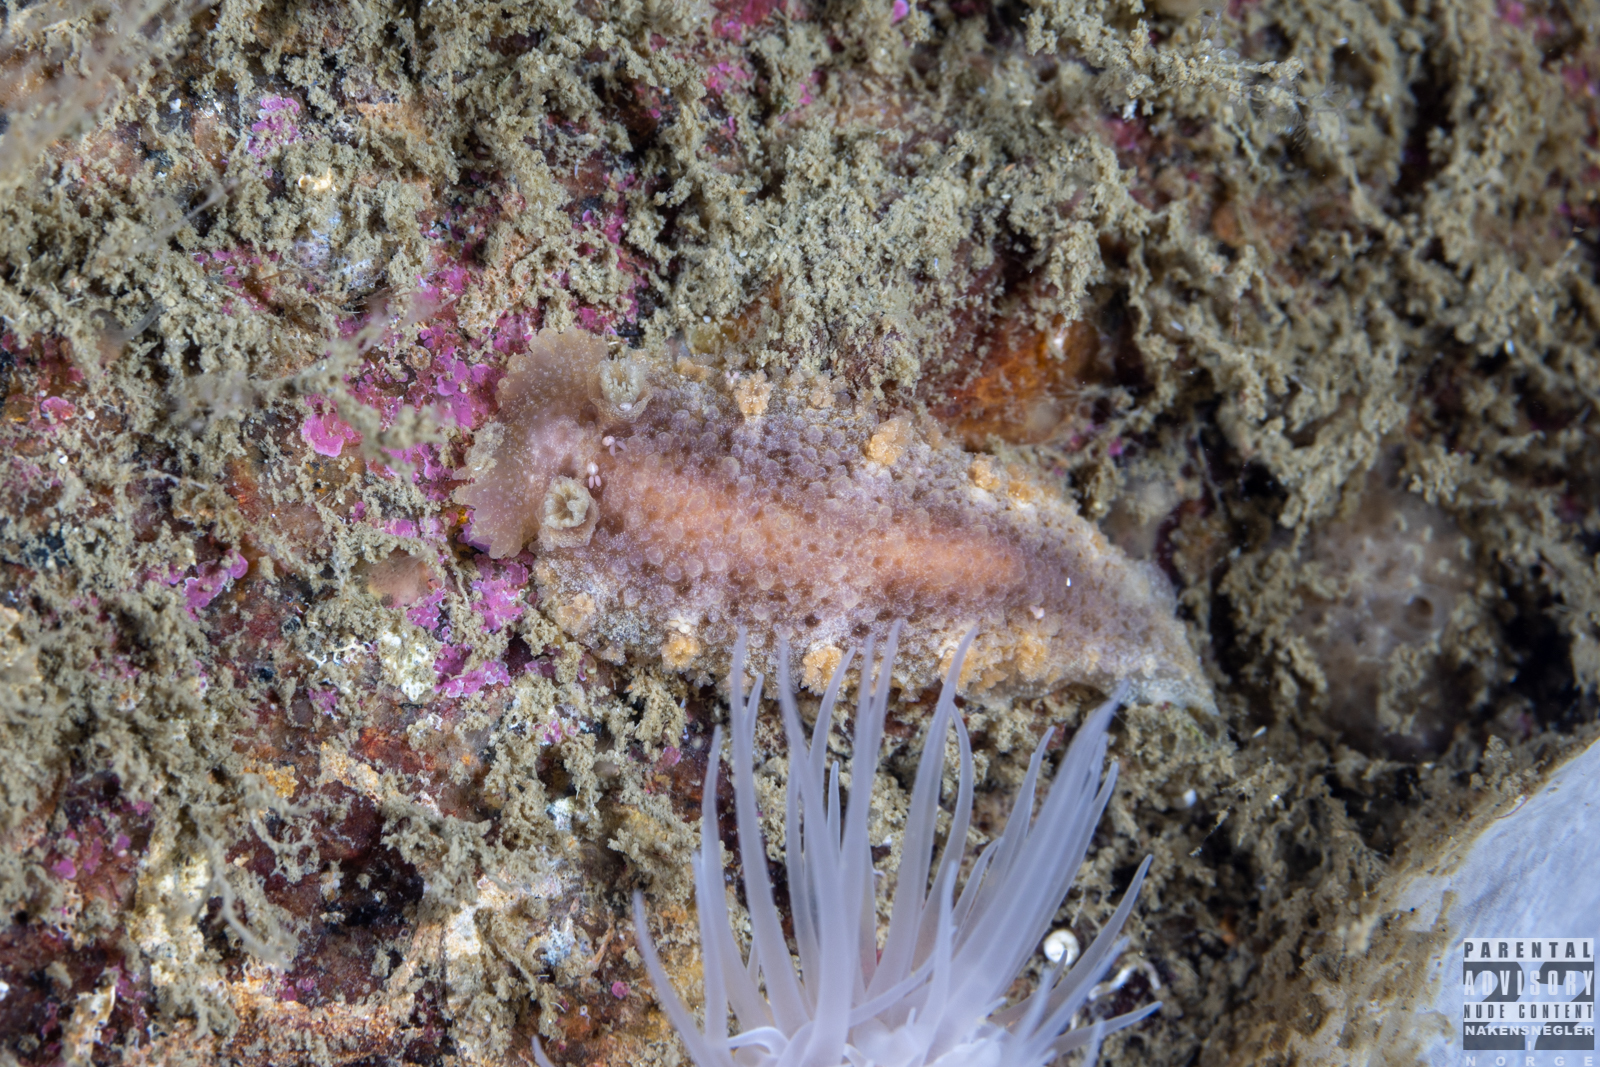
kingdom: Animalia
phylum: Mollusca
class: Gastropoda
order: Nudibranchia
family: Tritoniidae
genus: Tritonia
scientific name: Tritonia hombergii
